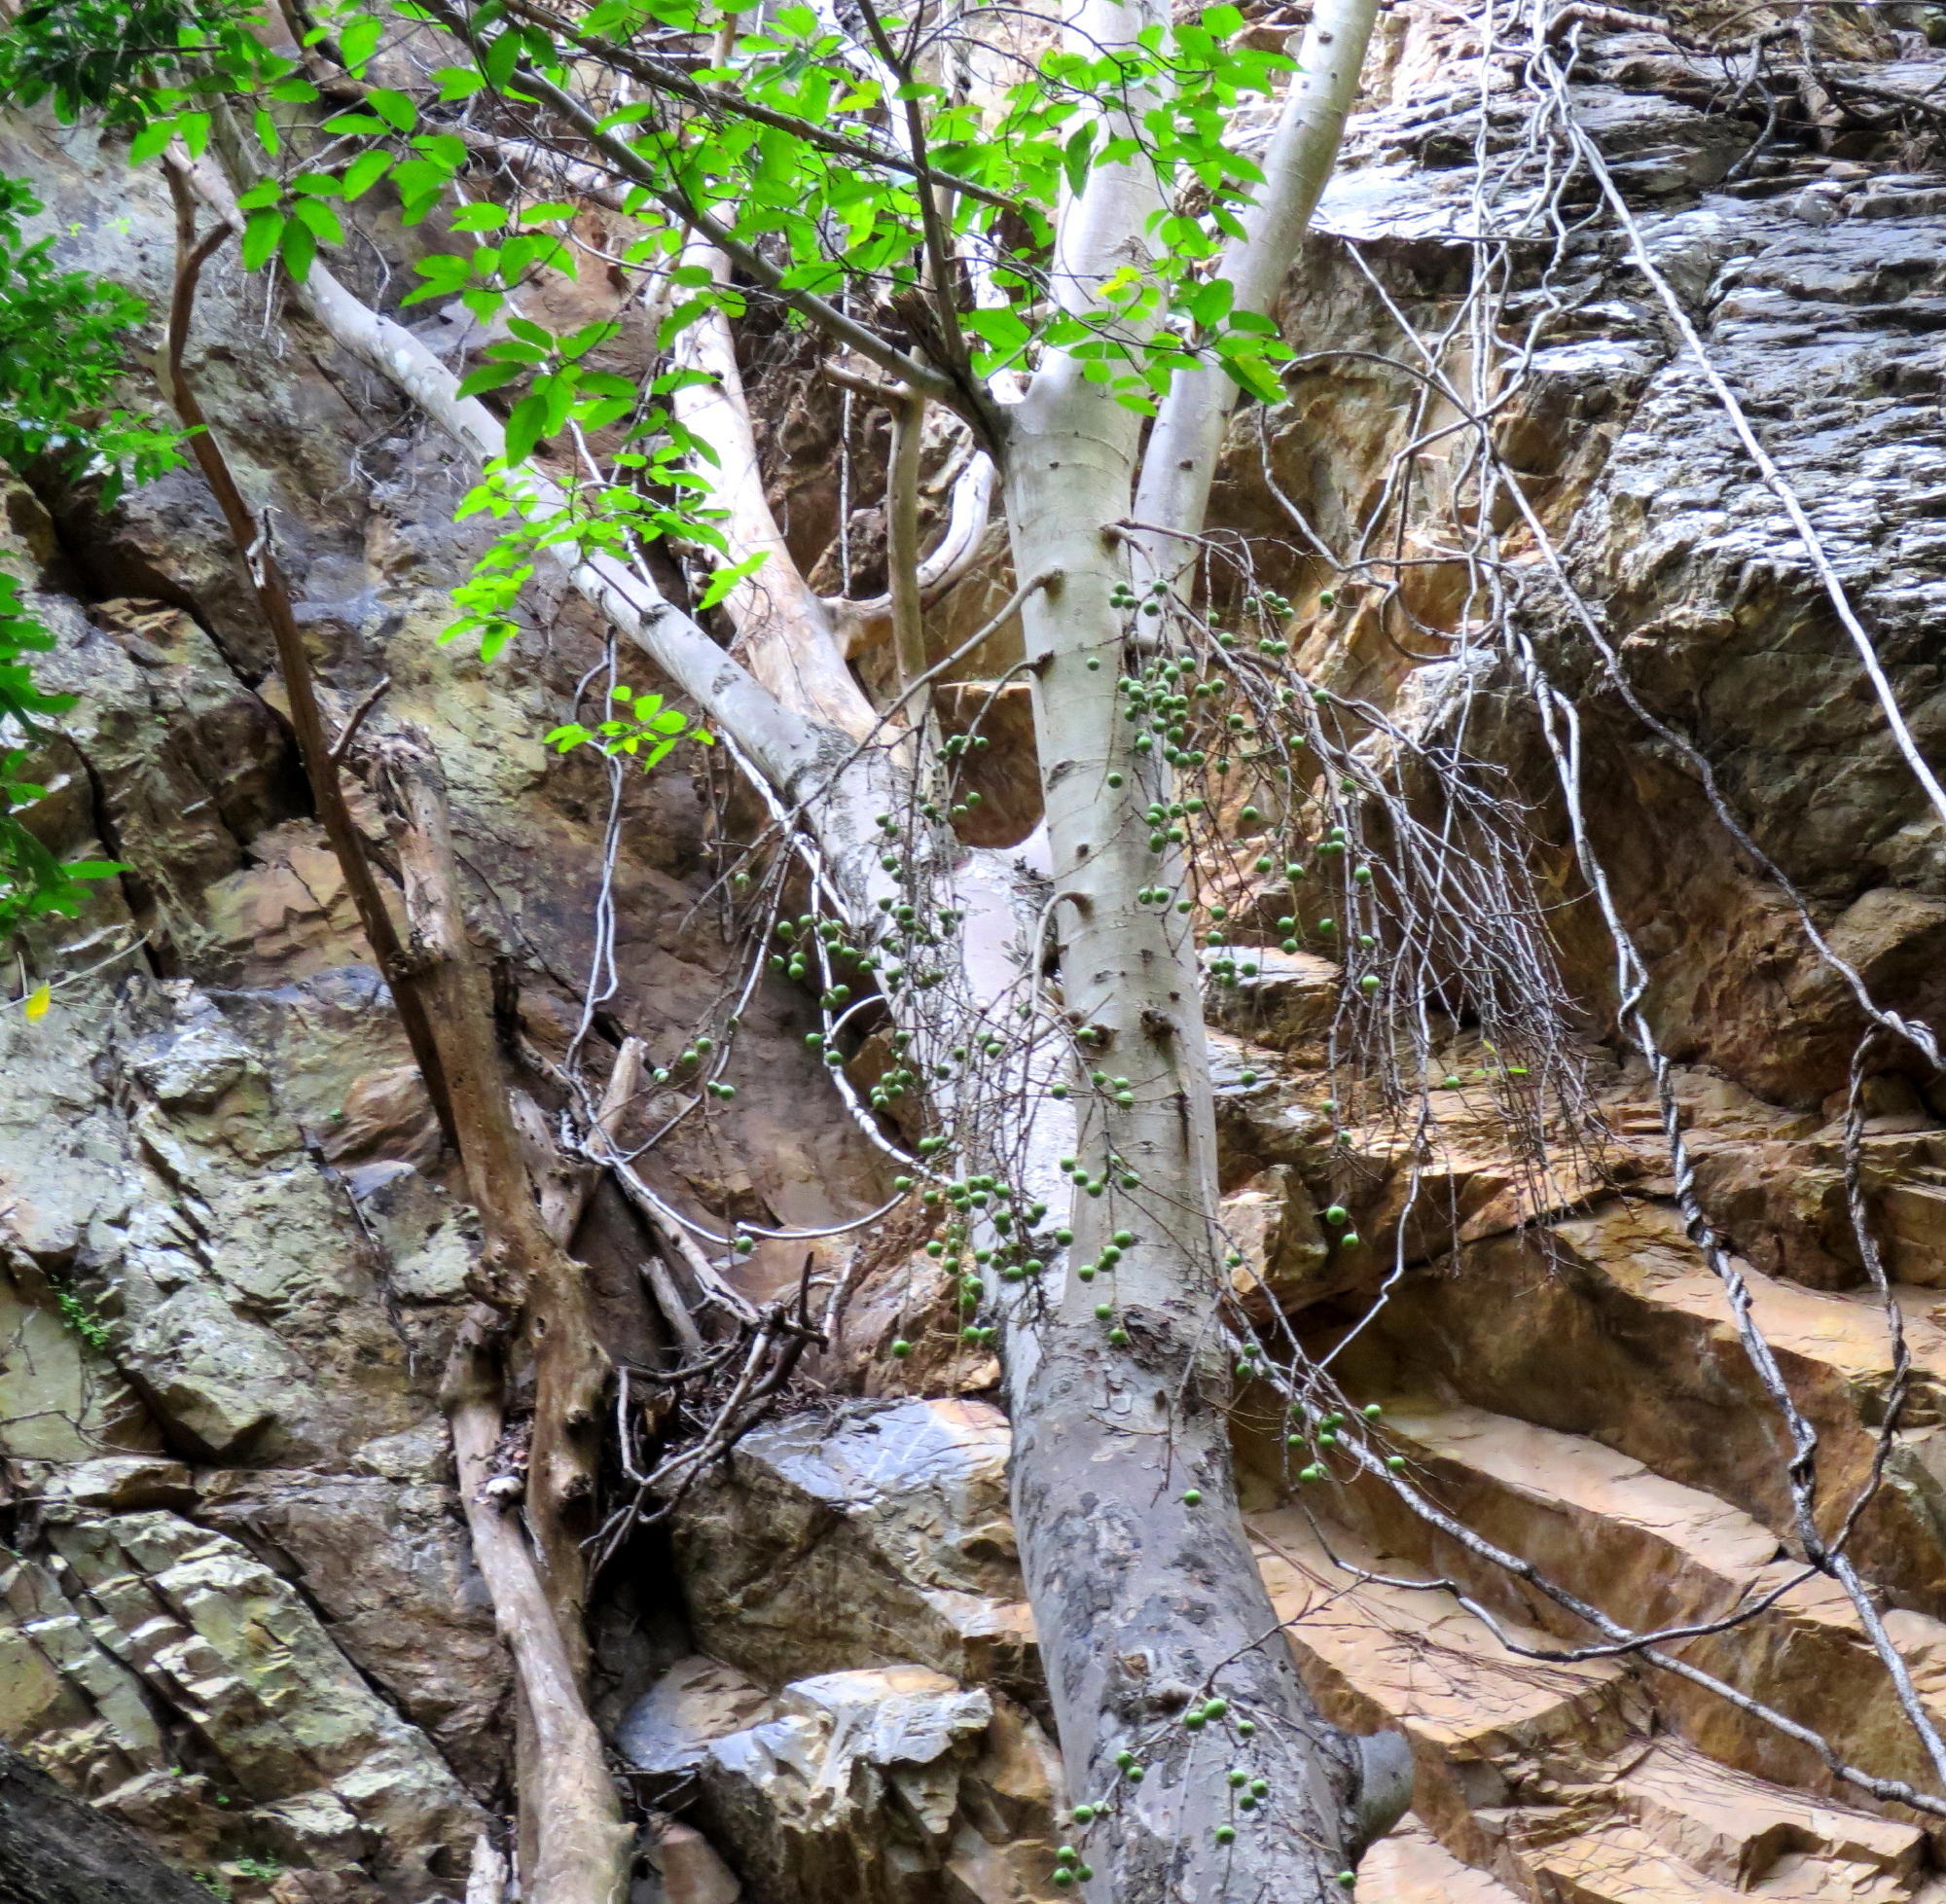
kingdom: Plantae
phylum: Tracheophyta
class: Magnoliopsida
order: Rosales
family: Moraceae
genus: Ficus
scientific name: Ficus sur
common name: Cape fig
